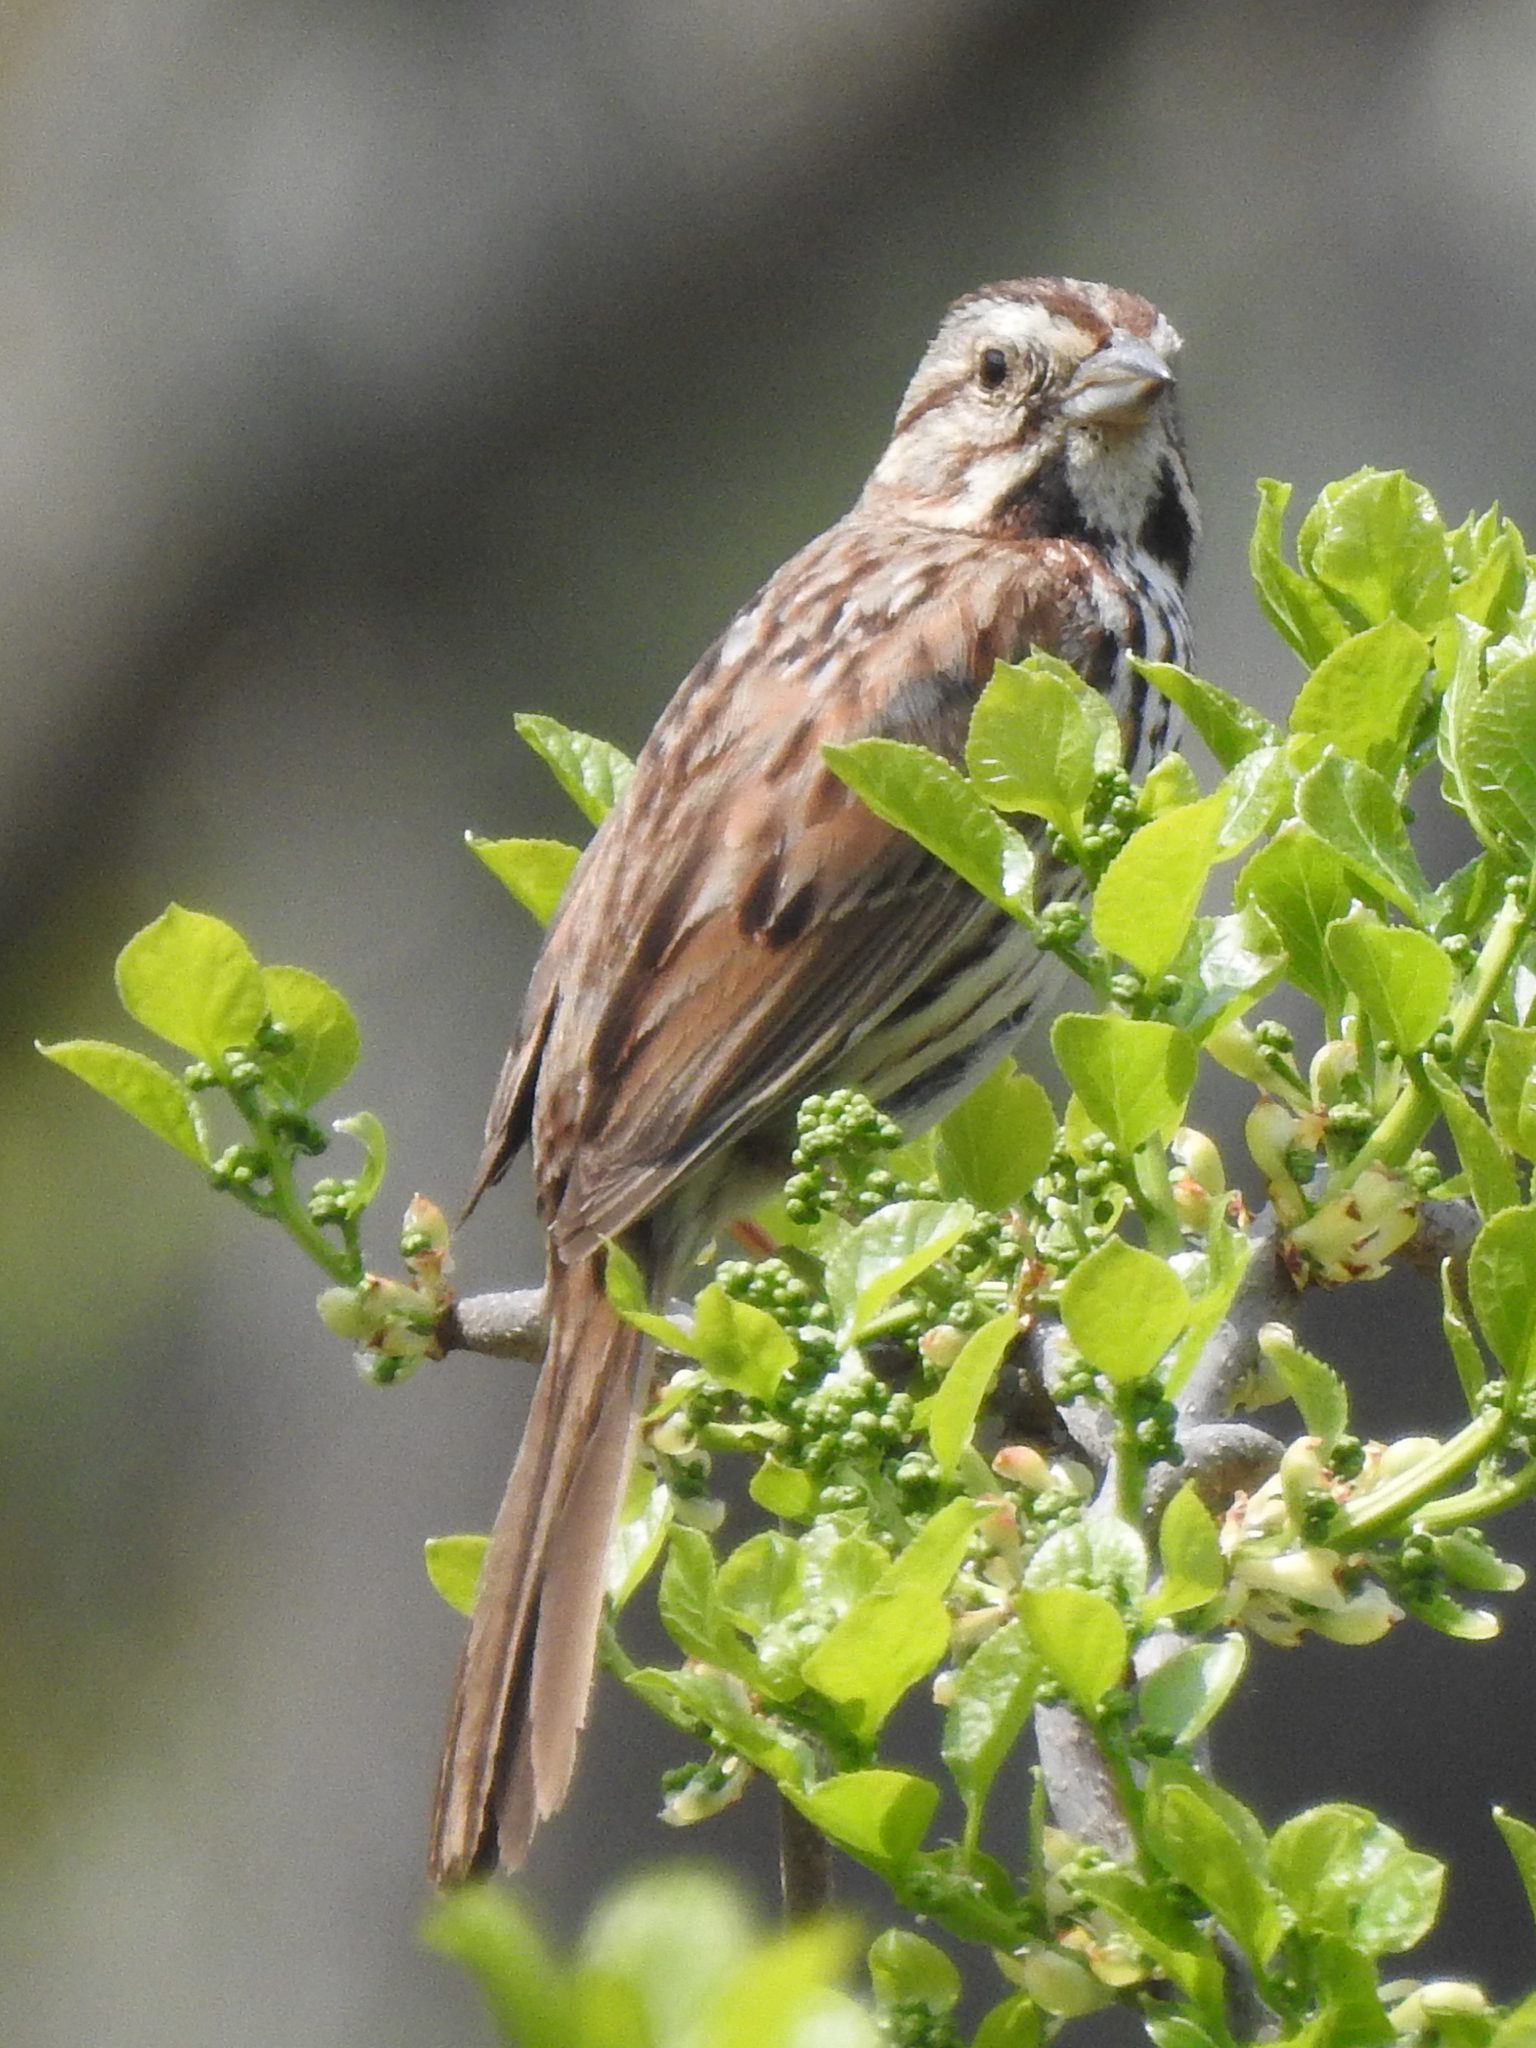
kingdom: Animalia
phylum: Chordata
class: Aves
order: Passeriformes
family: Passerellidae
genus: Melospiza
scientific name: Melospiza melodia
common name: Song sparrow
